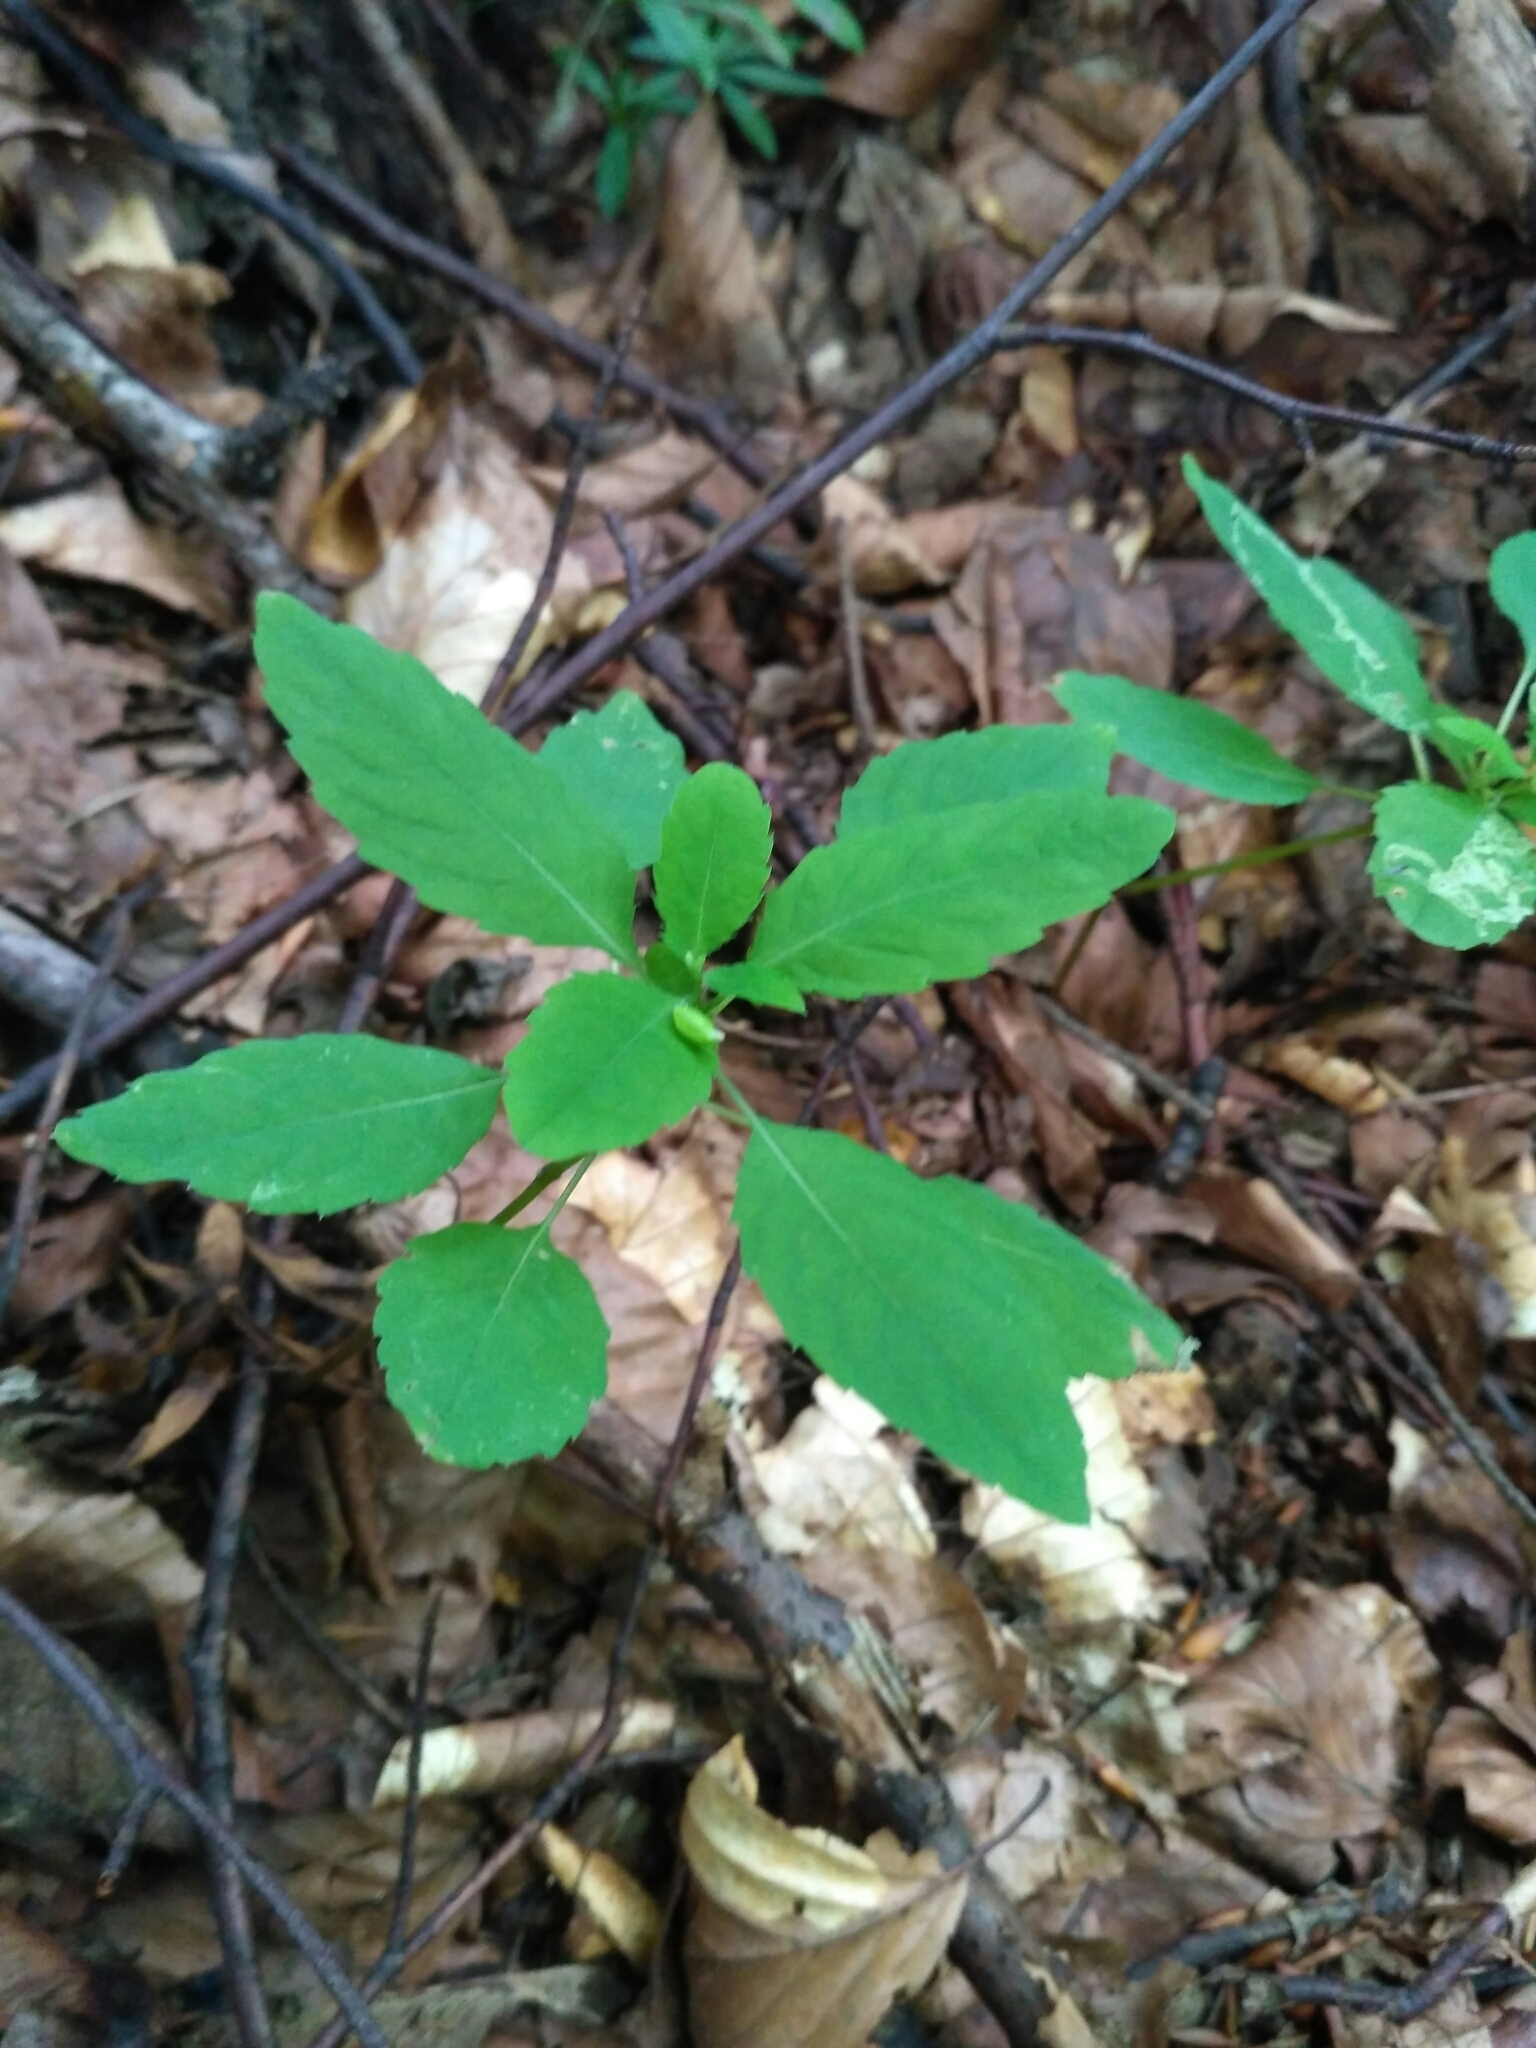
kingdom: Plantae
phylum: Tracheophyta
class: Magnoliopsida
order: Ericales
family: Balsaminaceae
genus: Impatiens
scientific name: Impatiens noli-tangere
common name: Touch-me-not balsam
